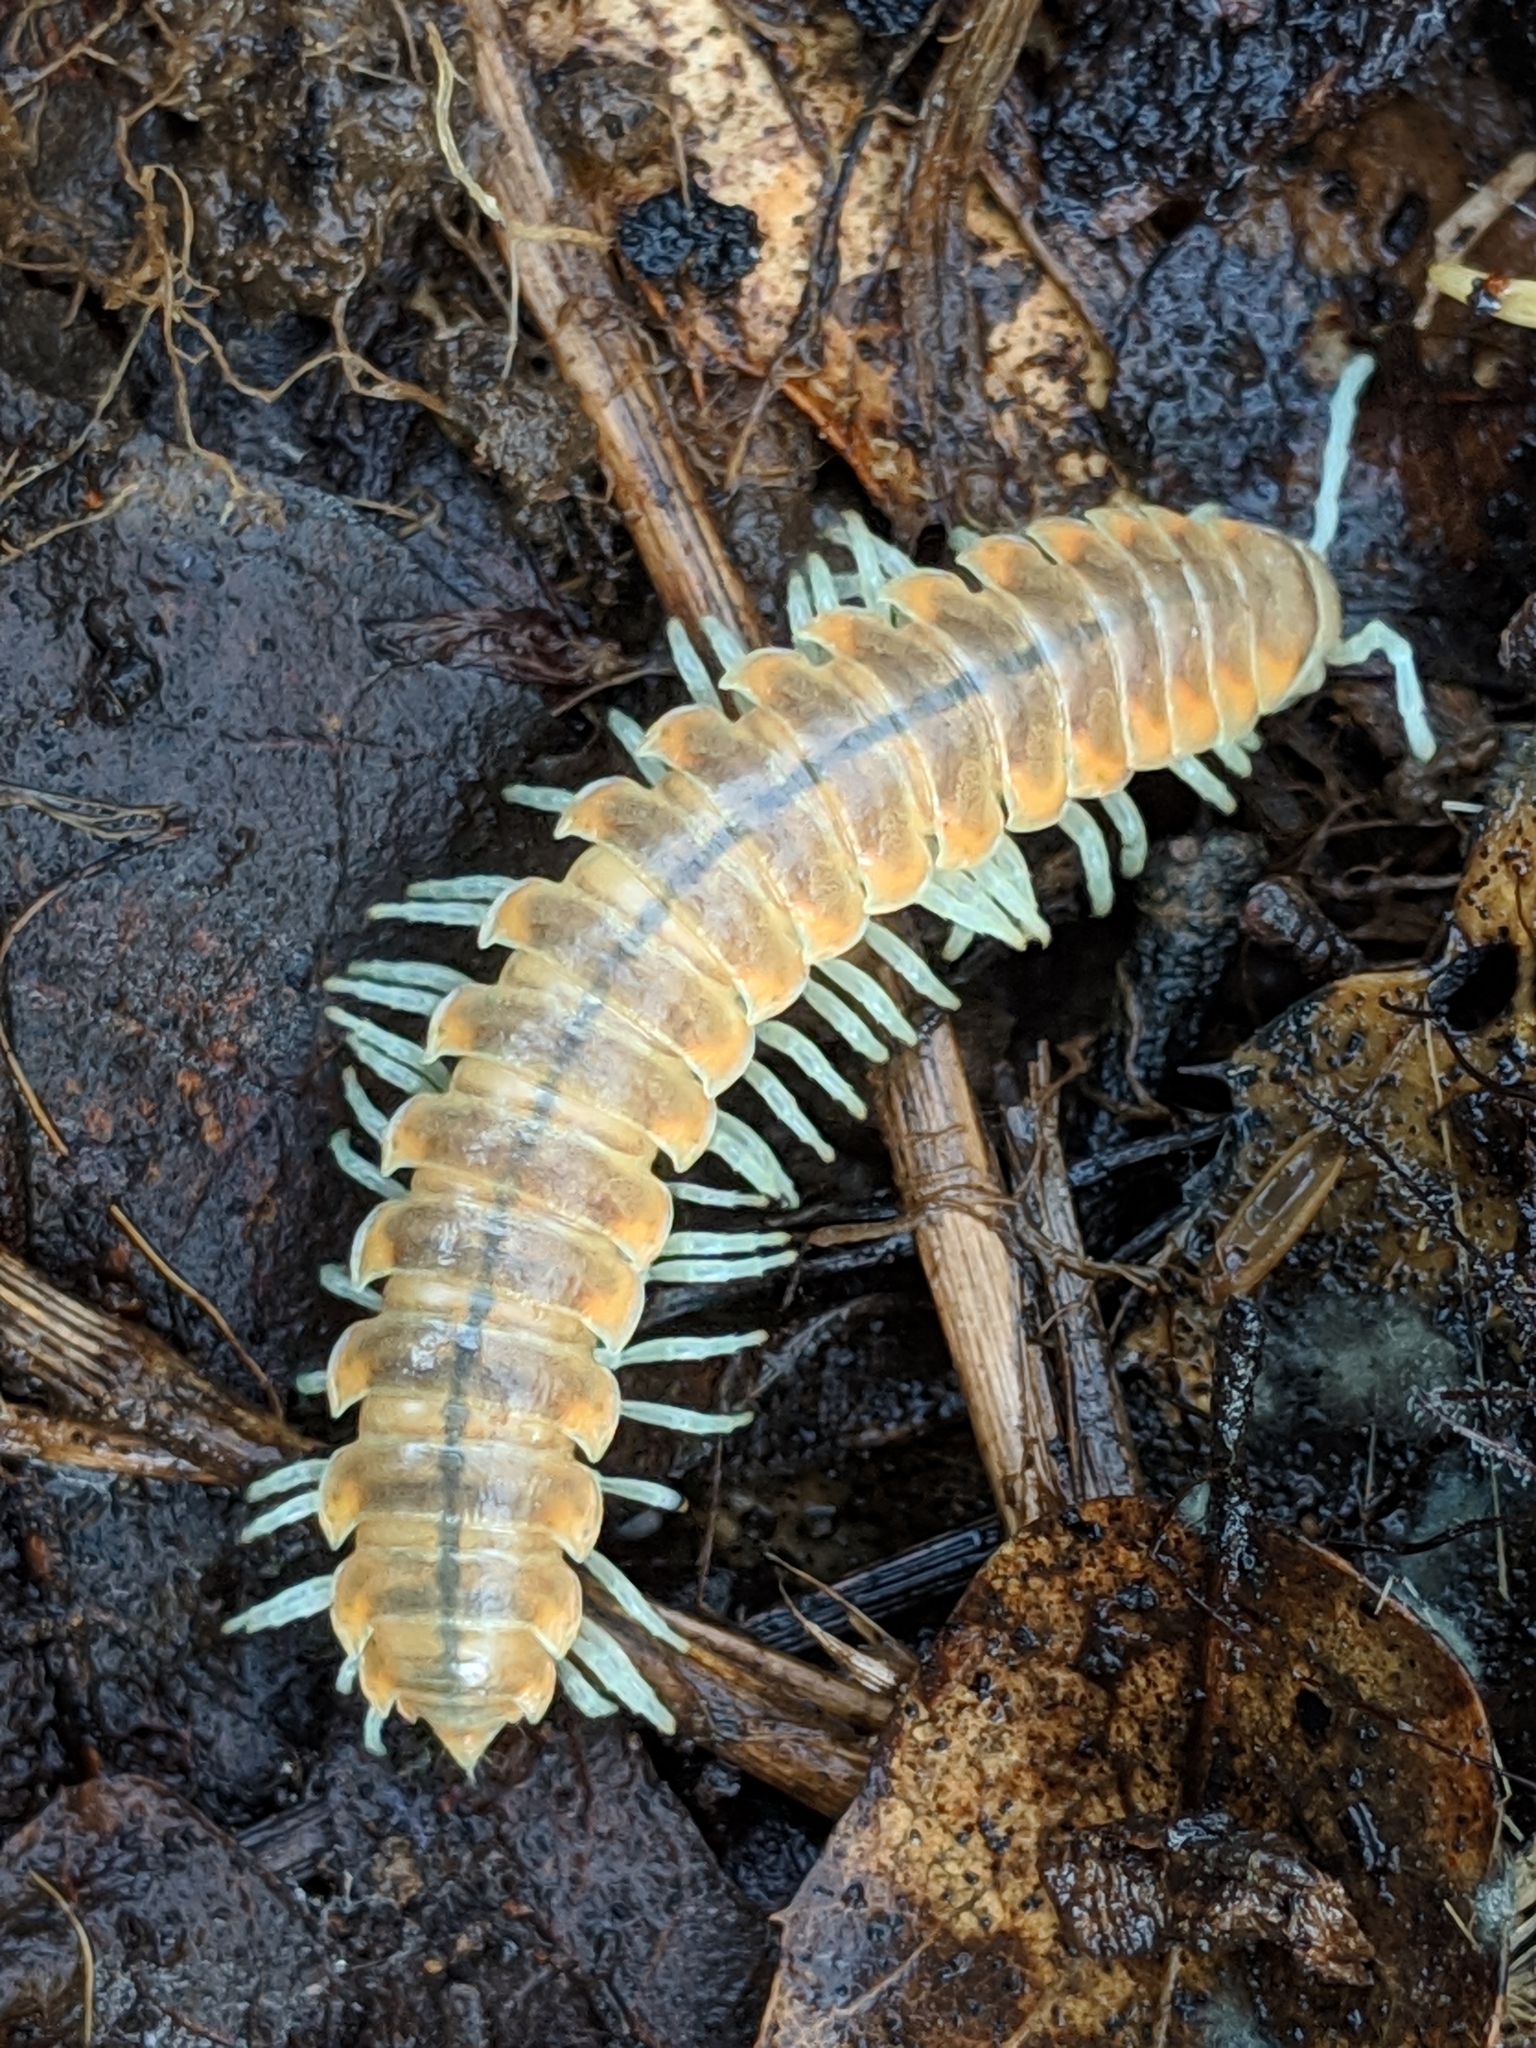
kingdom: Animalia
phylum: Arthropoda
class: Diplopoda
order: Polydesmida
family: Xystodesmidae
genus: Xystocheir
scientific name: Xystocheir dissecta
